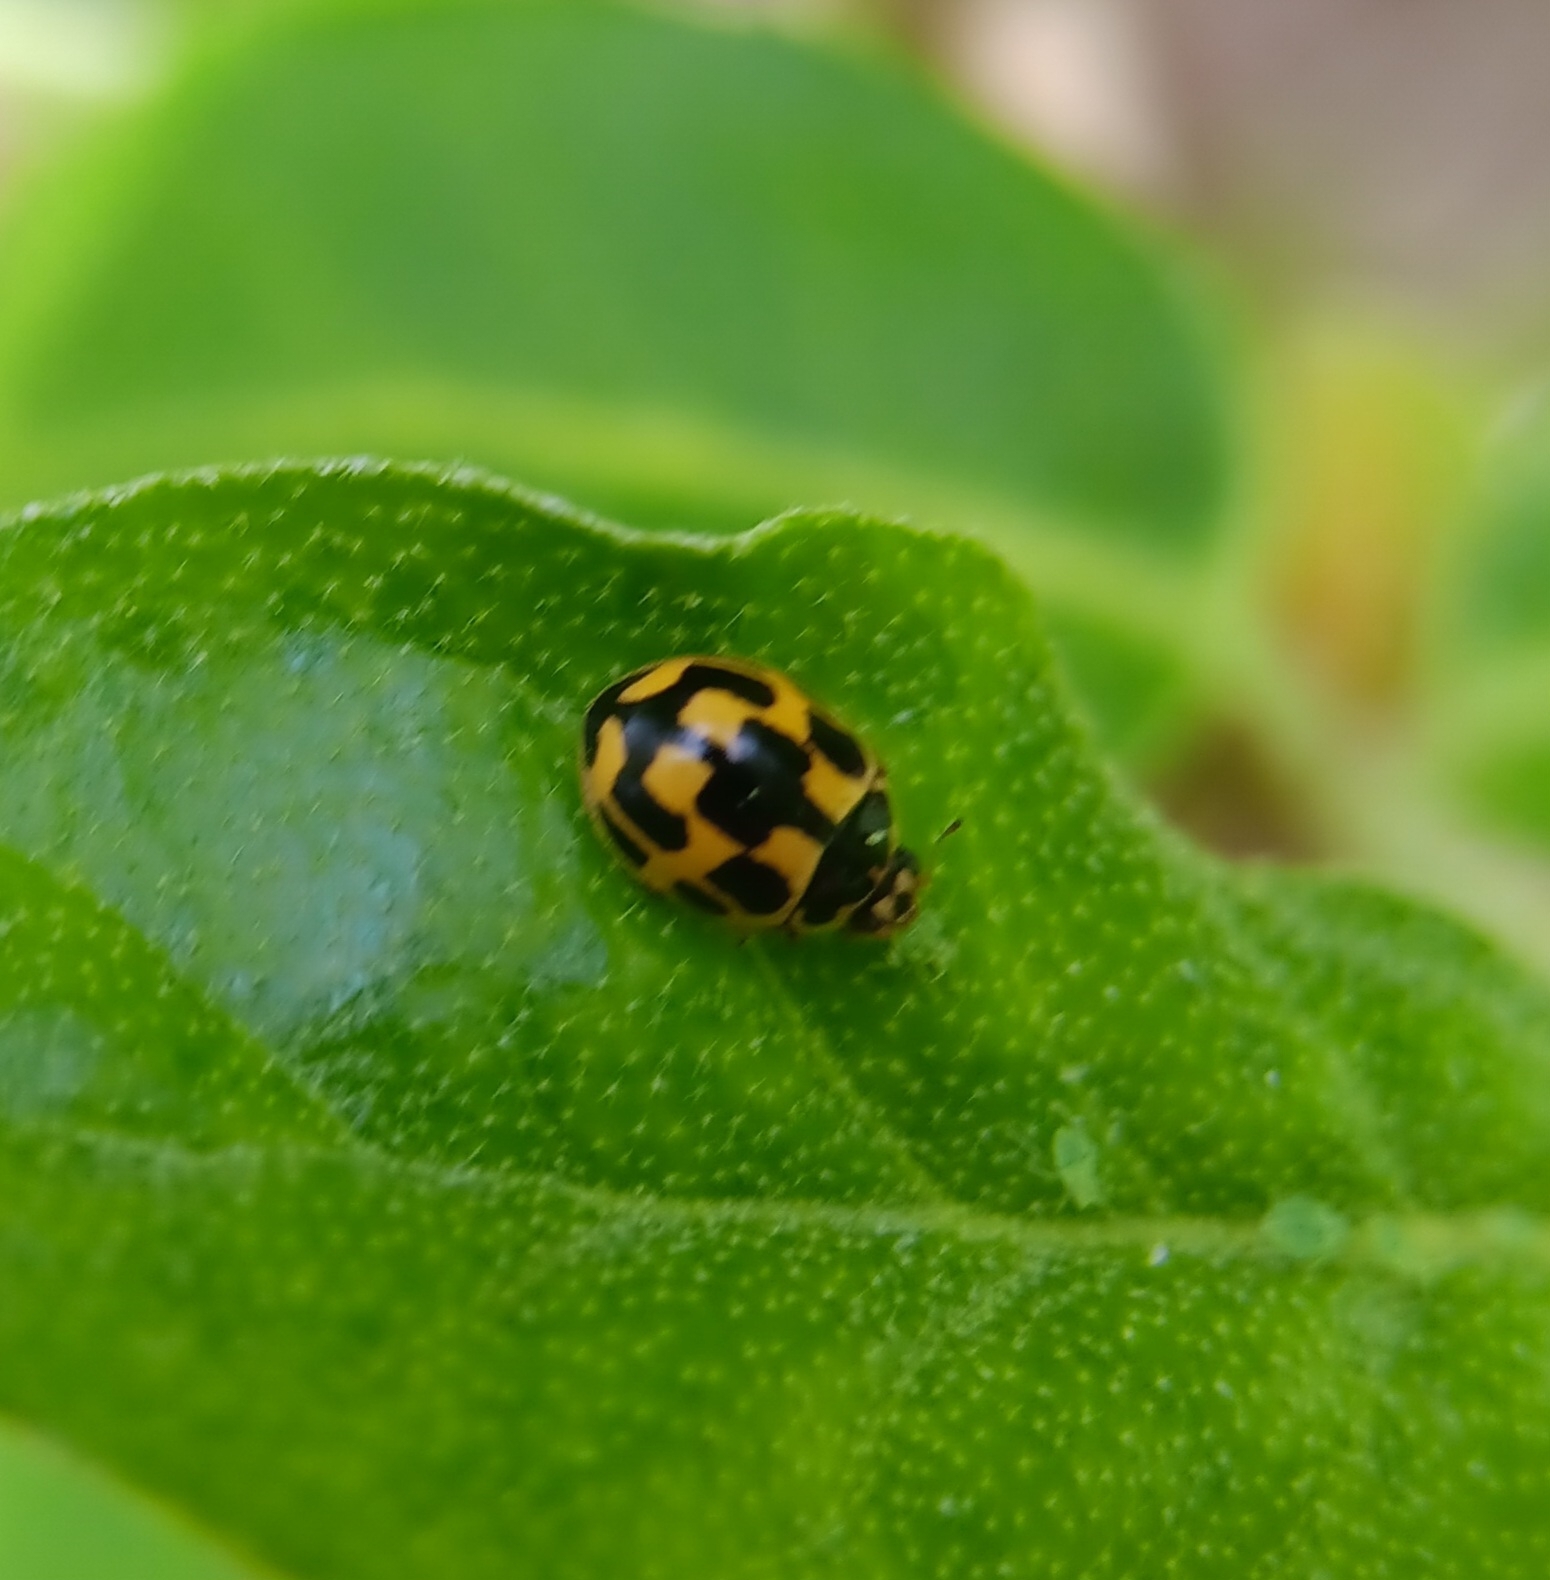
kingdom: Animalia
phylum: Arthropoda
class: Insecta
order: Coleoptera
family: Coccinellidae
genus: Propylaea
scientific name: Propylaea quatuordecimpunctata
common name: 14-spotted ladybird beetle
